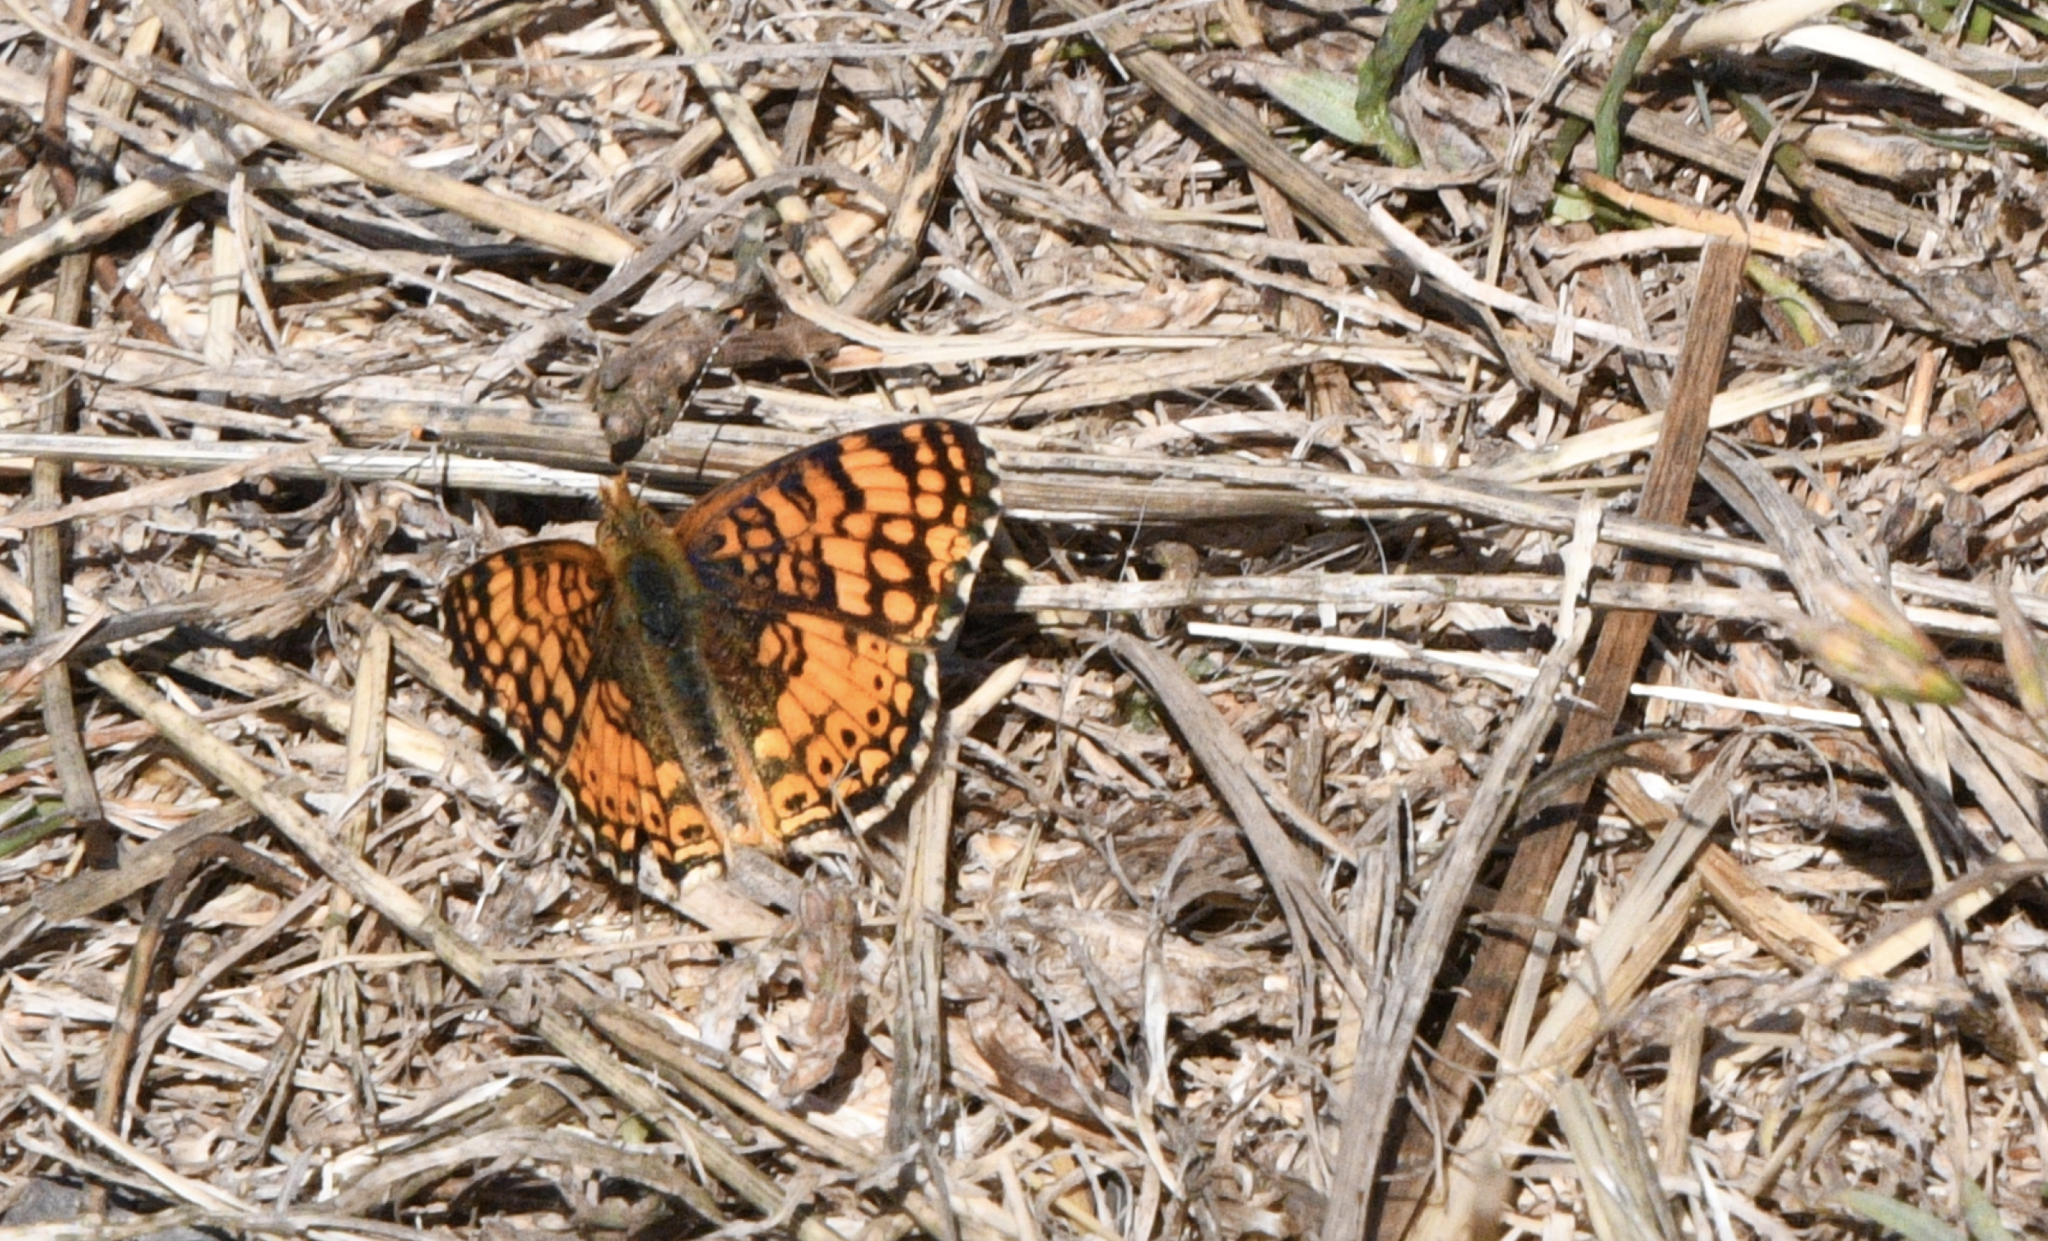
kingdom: Animalia
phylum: Arthropoda
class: Insecta
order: Lepidoptera
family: Nymphalidae
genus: Eresia
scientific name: Eresia aveyrona
